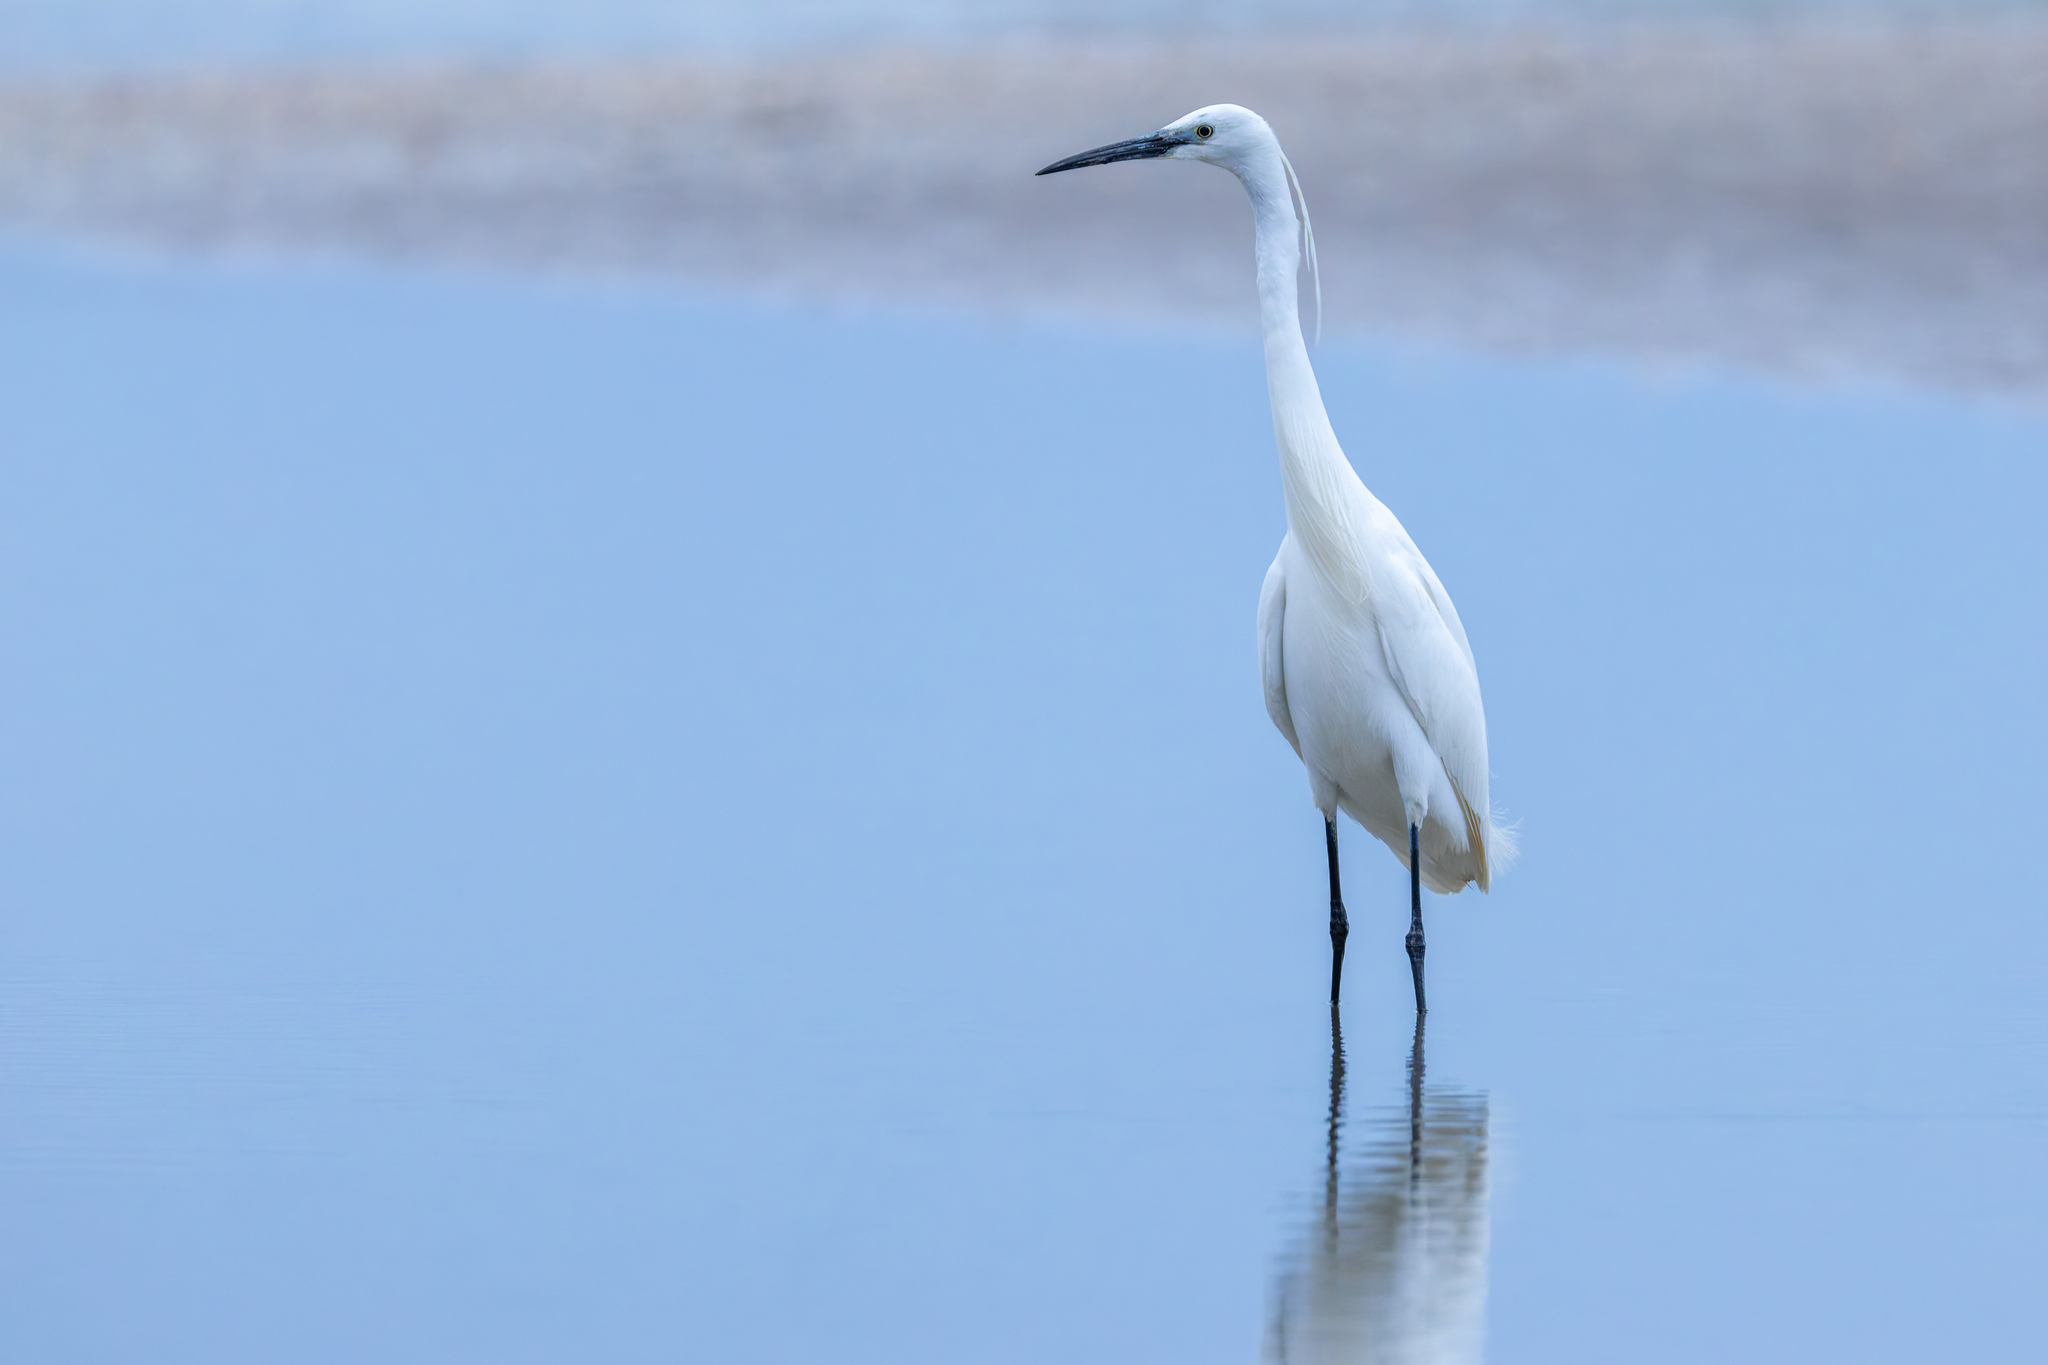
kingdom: Animalia
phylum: Chordata
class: Aves
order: Pelecaniformes
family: Ardeidae
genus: Egretta
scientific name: Egretta garzetta
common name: Little egret
